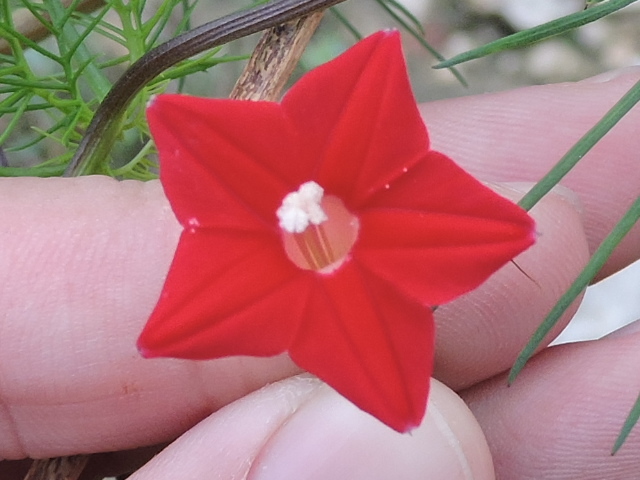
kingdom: Plantae
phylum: Tracheophyta
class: Magnoliopsida
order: Solanales
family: Convolvulaceae
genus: Ipomoea
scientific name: Ipomoea quamoclit
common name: Cypress vine
